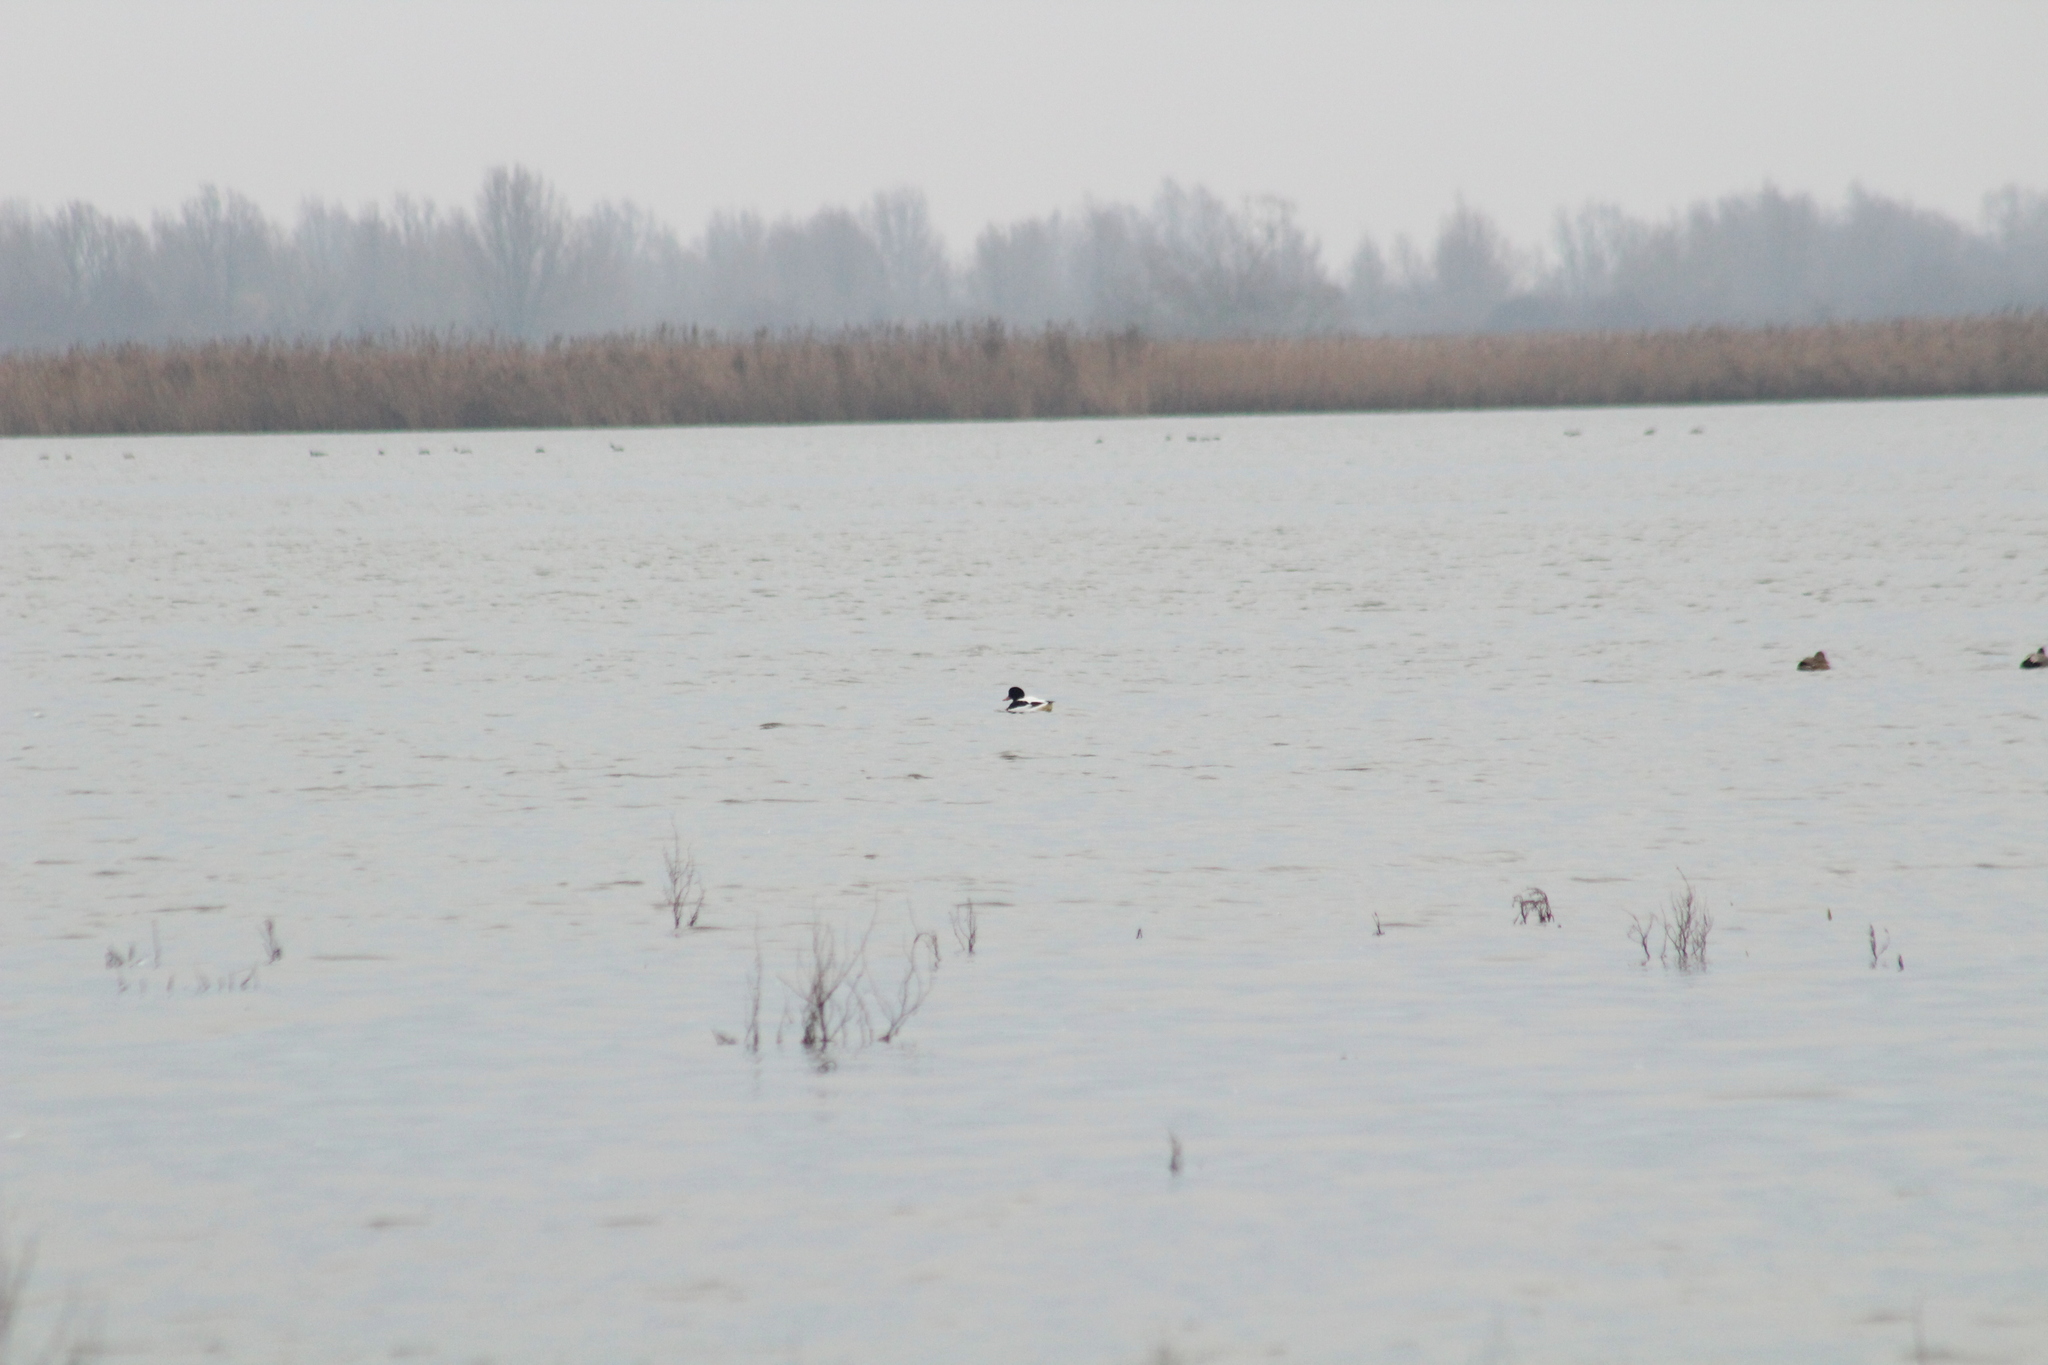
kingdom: Animalia
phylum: Chordata
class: Aves
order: Anseriformes
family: Anatidae
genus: Tadorna
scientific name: Tadorna tadorna
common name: Common shelduck
